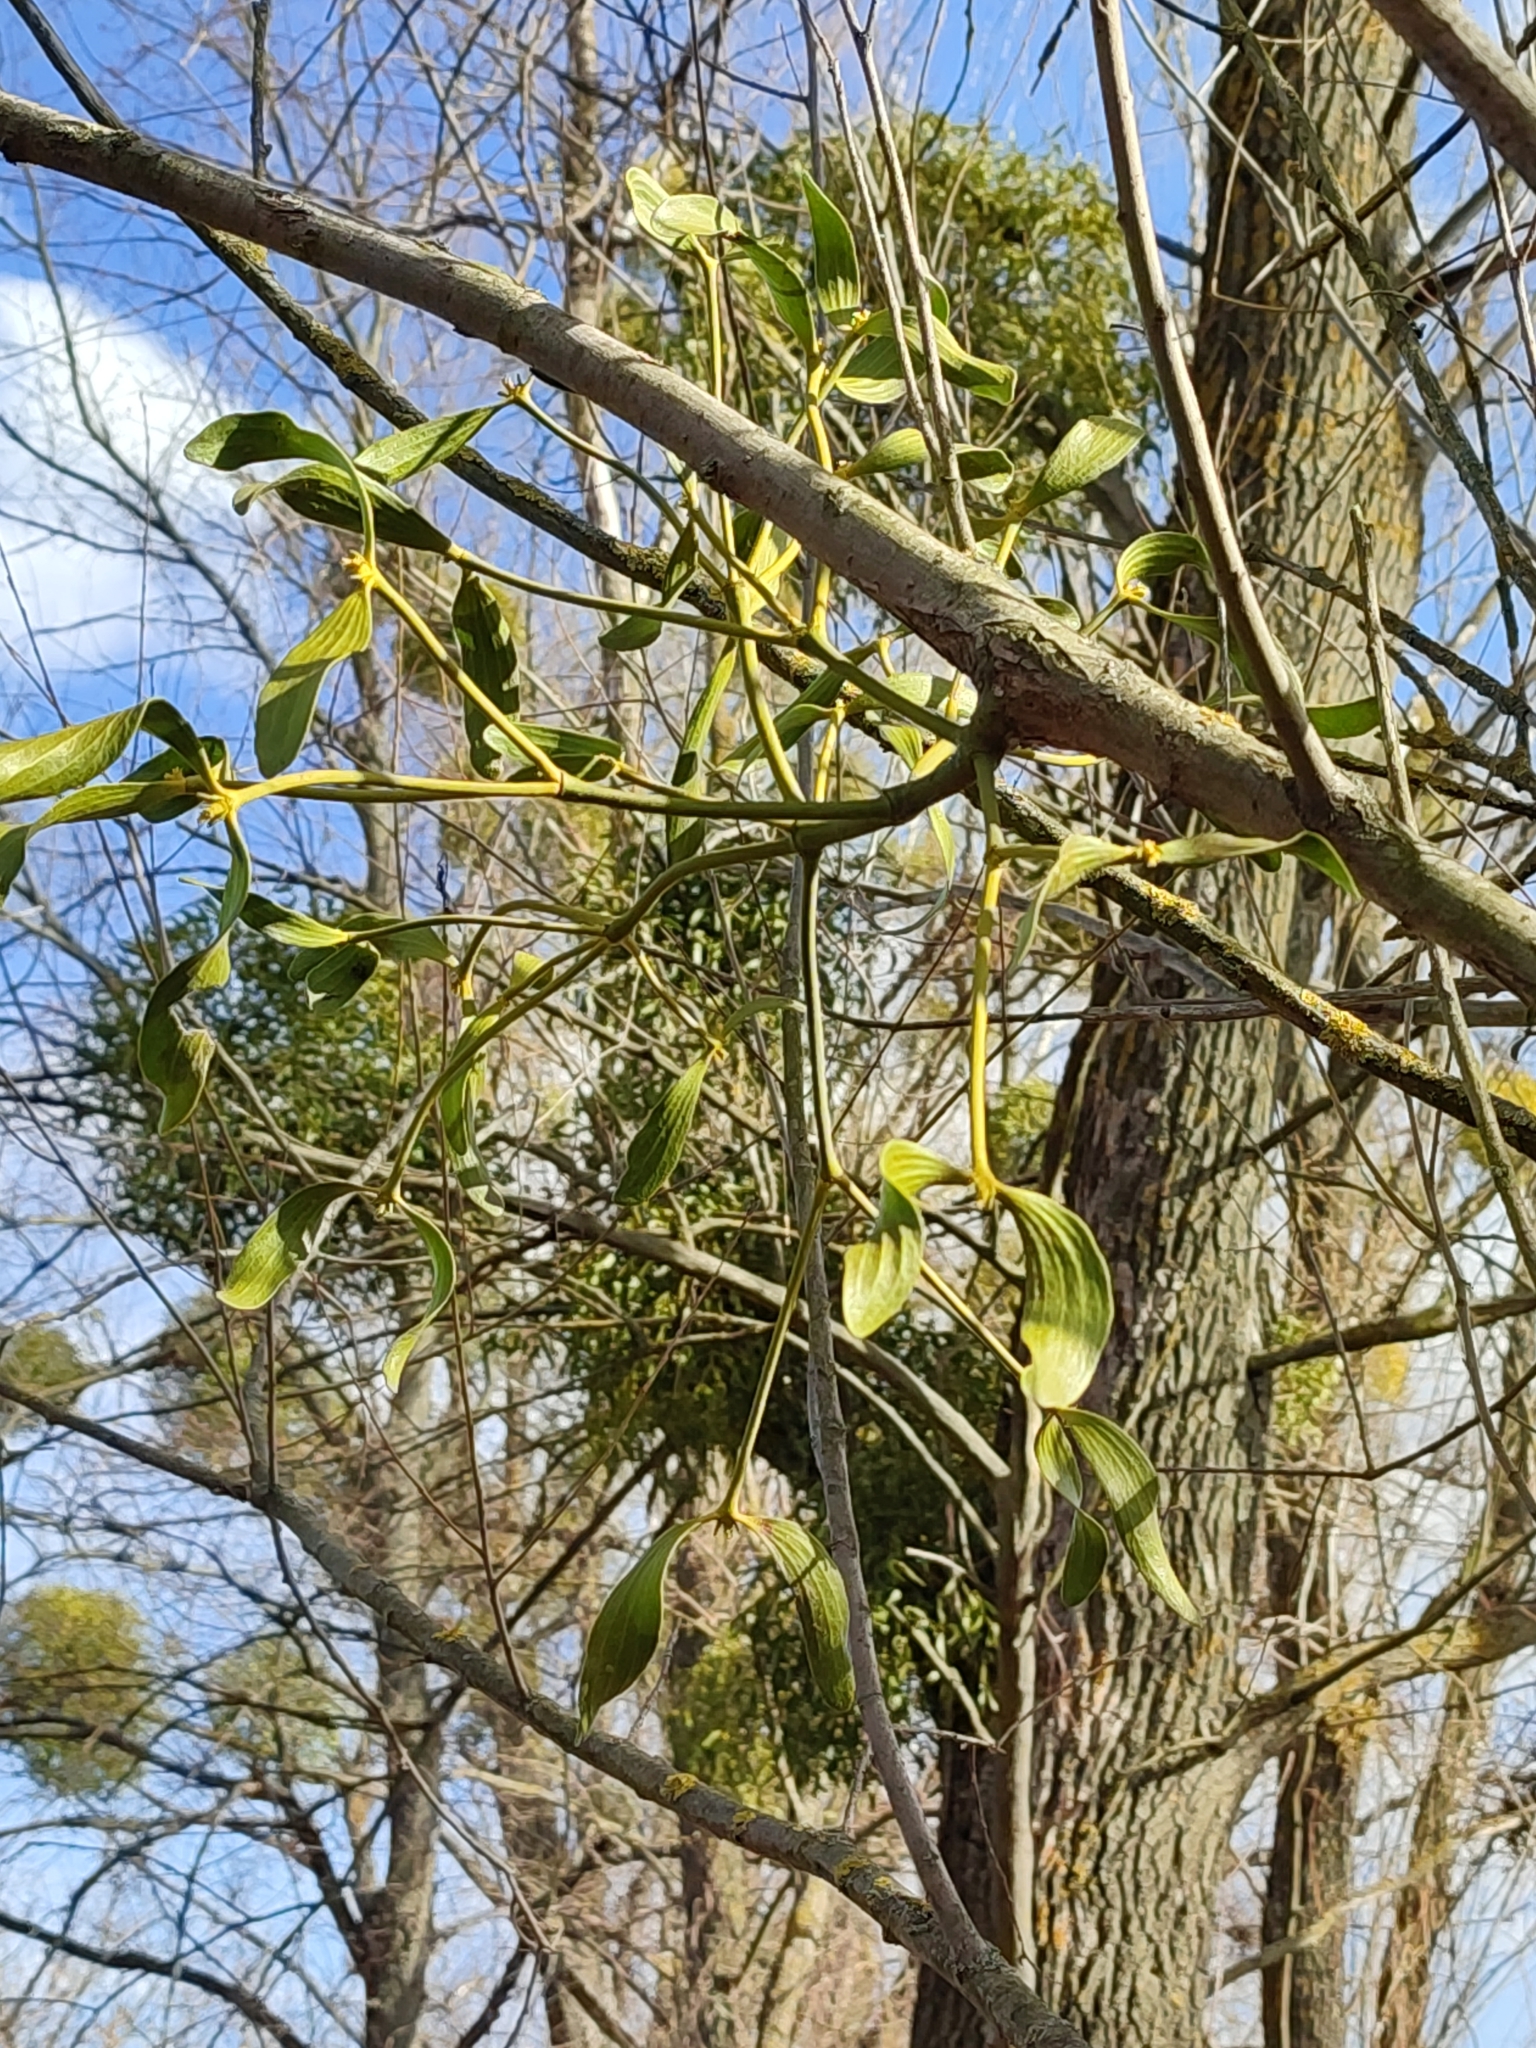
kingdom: Plantae
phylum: Tracheophyta
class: Magnoliopsida
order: Santalales
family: Viscaceae
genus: Viscum
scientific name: Viscum album
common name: Mistletoe
